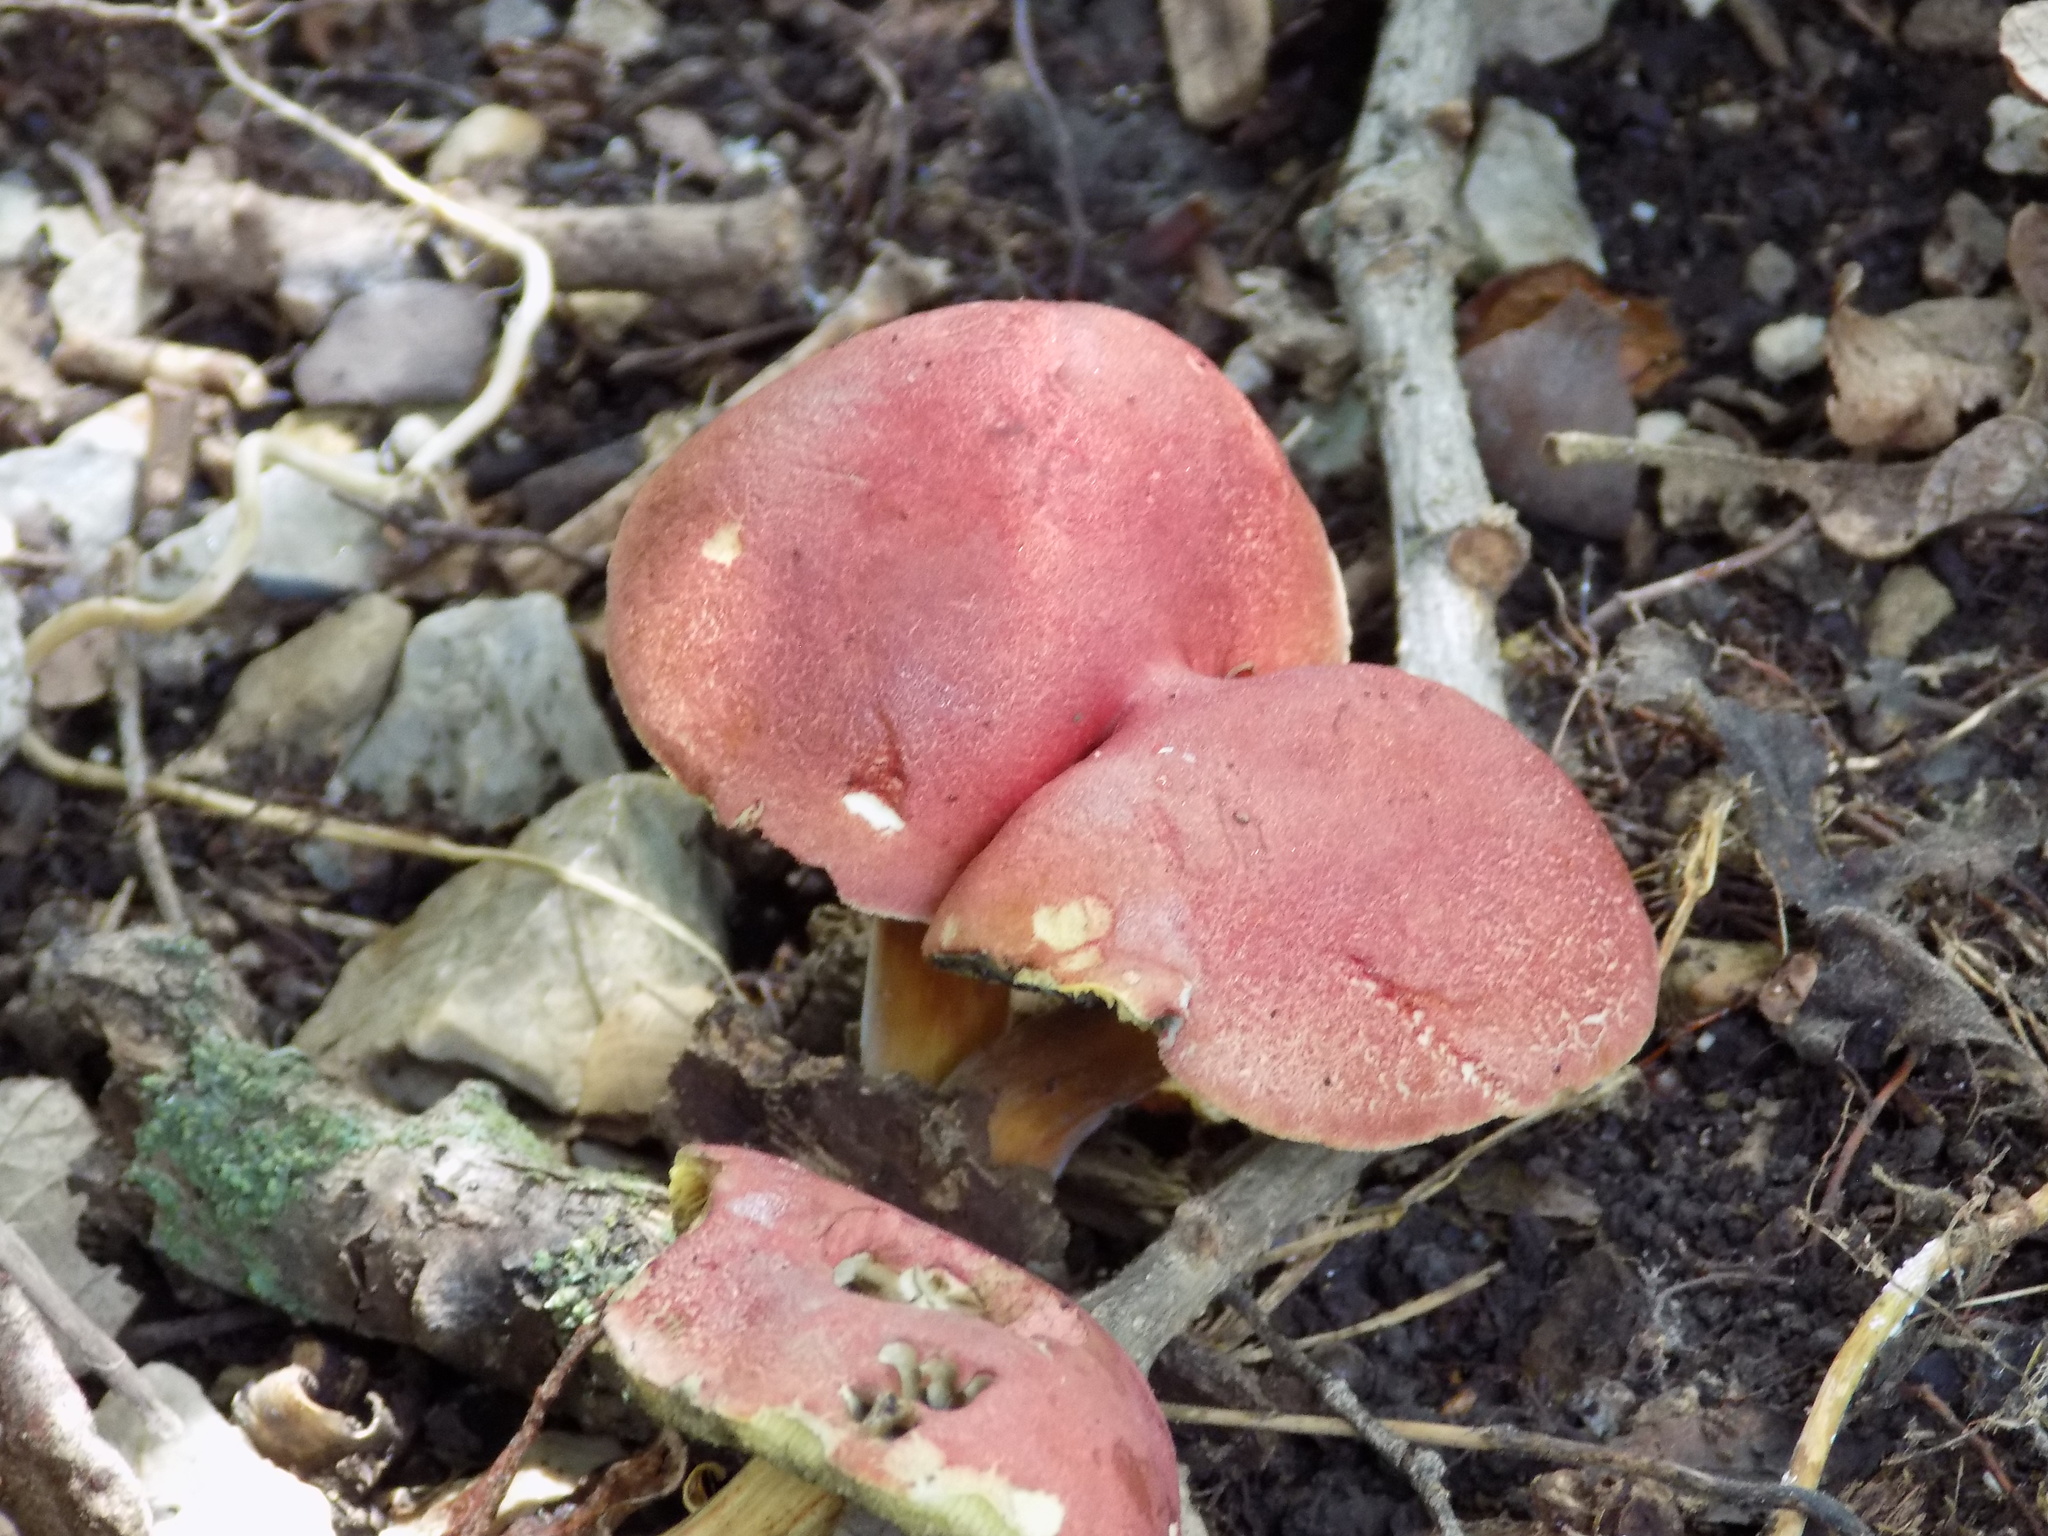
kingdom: Fungi
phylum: Basidiomycota
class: Agaricomycetes
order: Boletales
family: Boletaceae
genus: Hortiboletus
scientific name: Hortiboletus rubellus
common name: Ruby bolete
